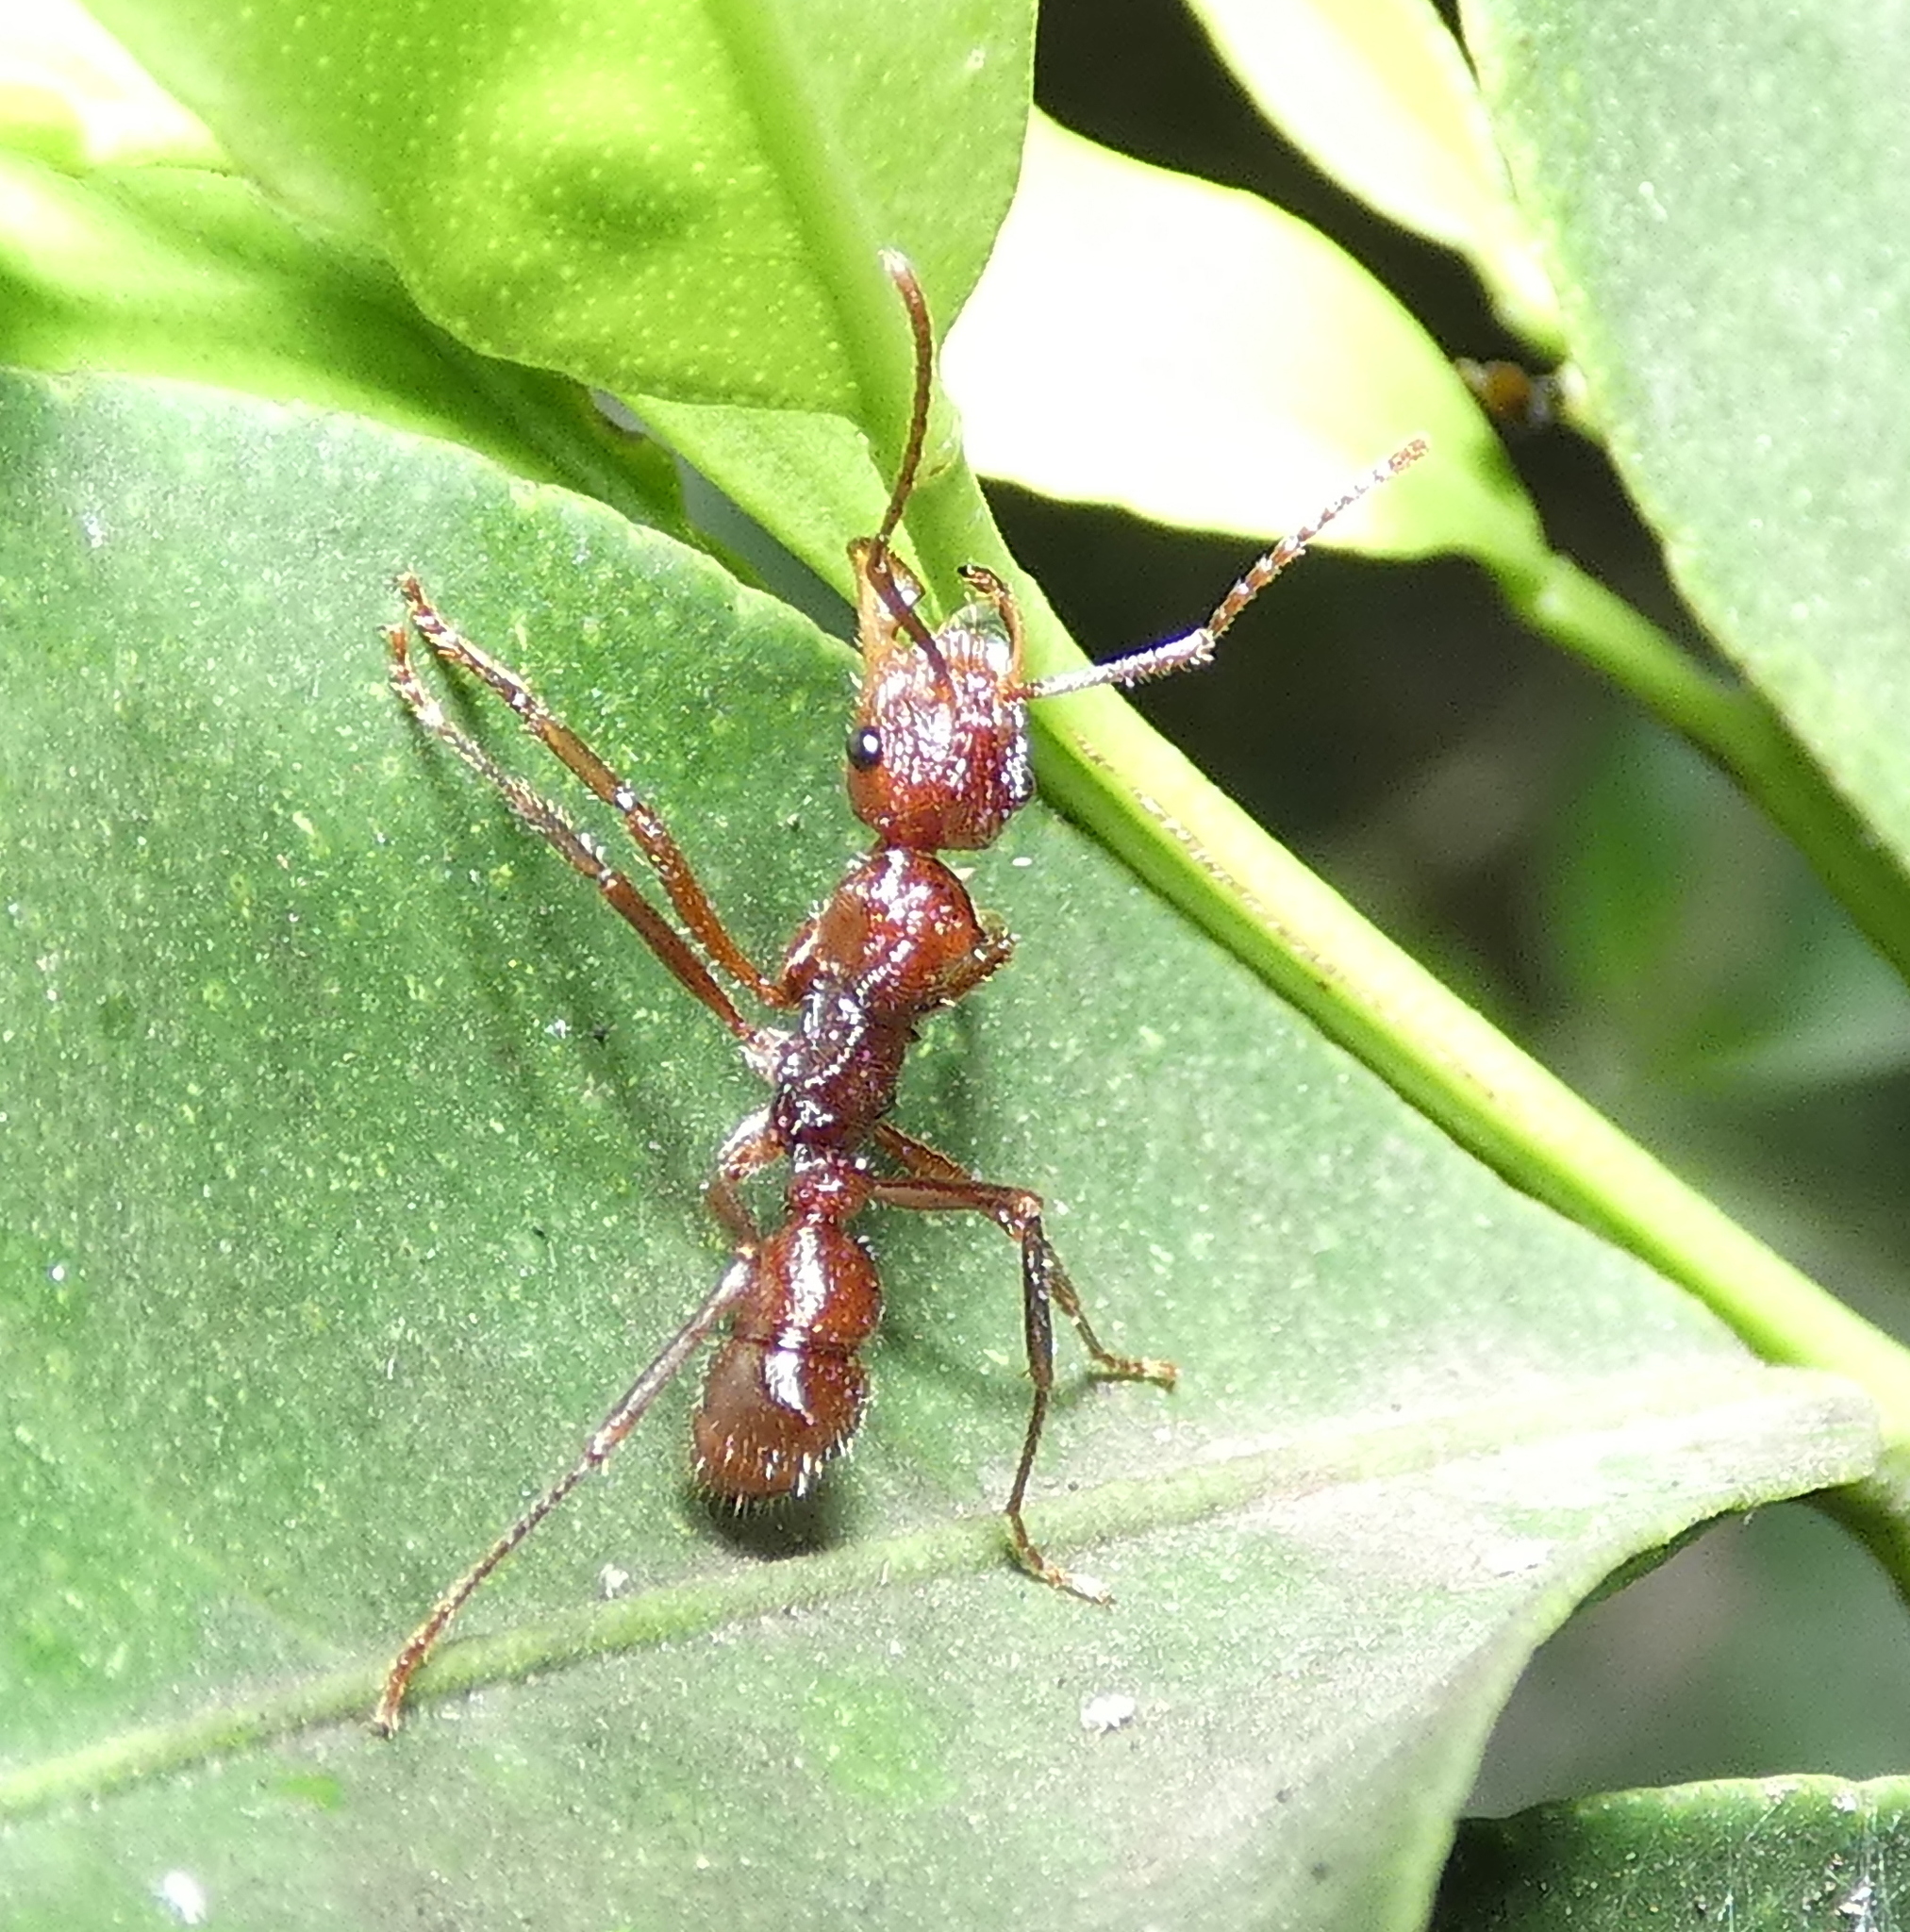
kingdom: Animalia
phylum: Arthropoda
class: Insecta
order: Hymenoptera
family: Formicidae
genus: Ectatomma
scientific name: Ectatomma tuberculatum
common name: Ant
